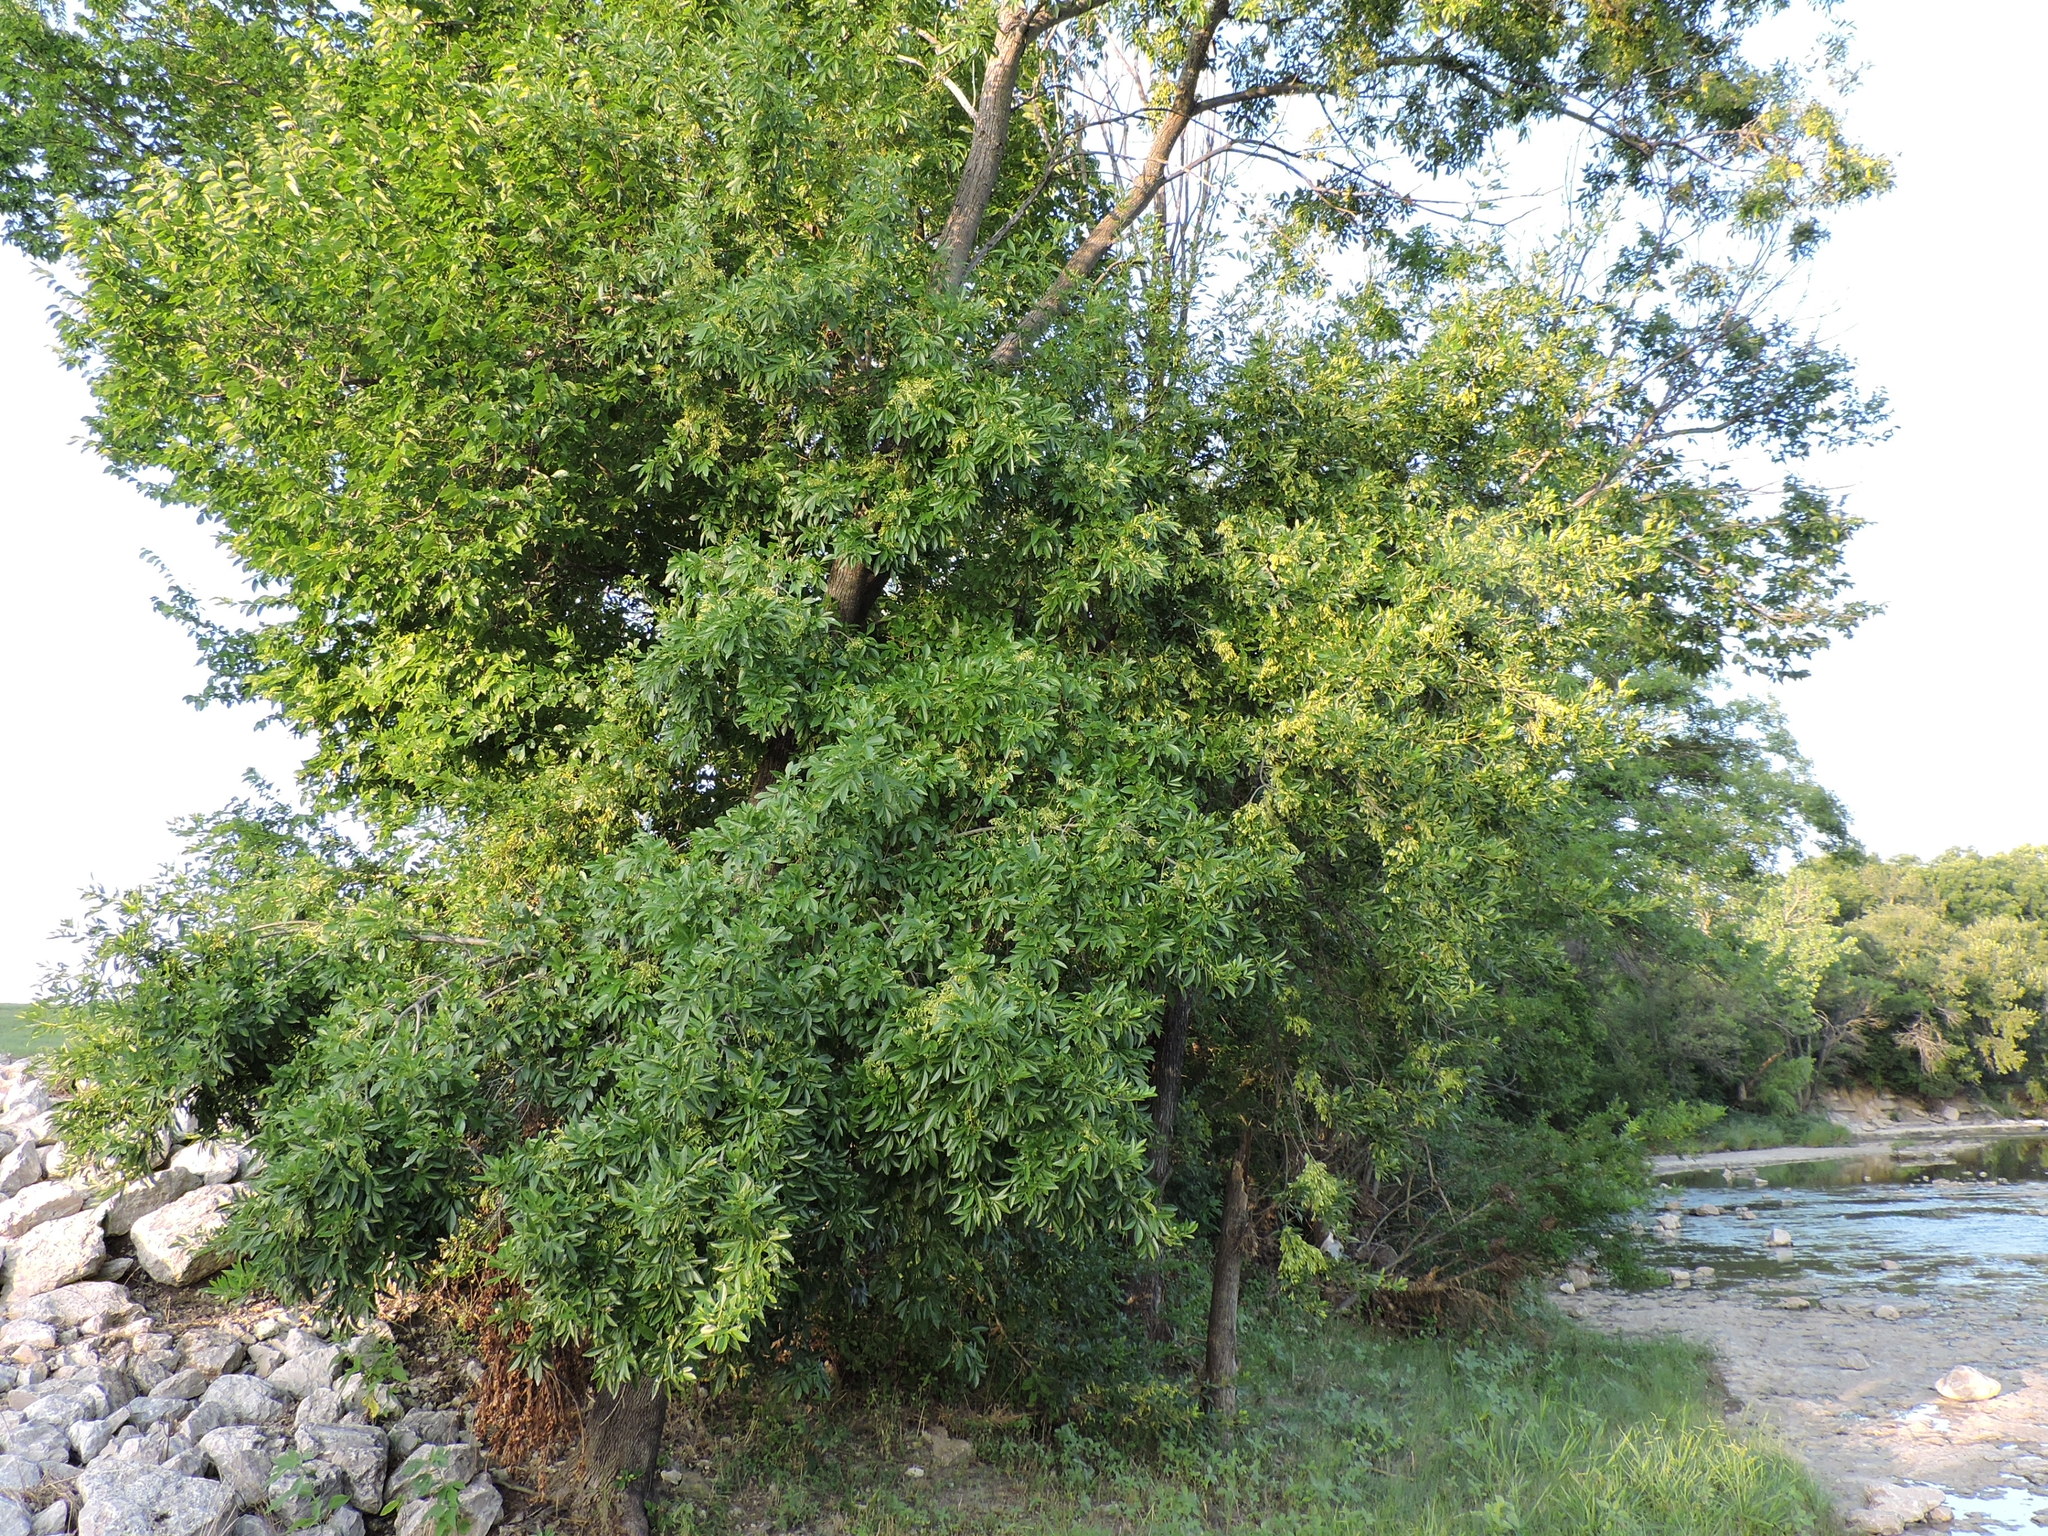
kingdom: Plantae
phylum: Tracheophyta
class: Magnoliopsida
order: Lamiales
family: Oleaceae
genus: Fraxinus
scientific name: Fraxinus pennsylvanica
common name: Green ash
